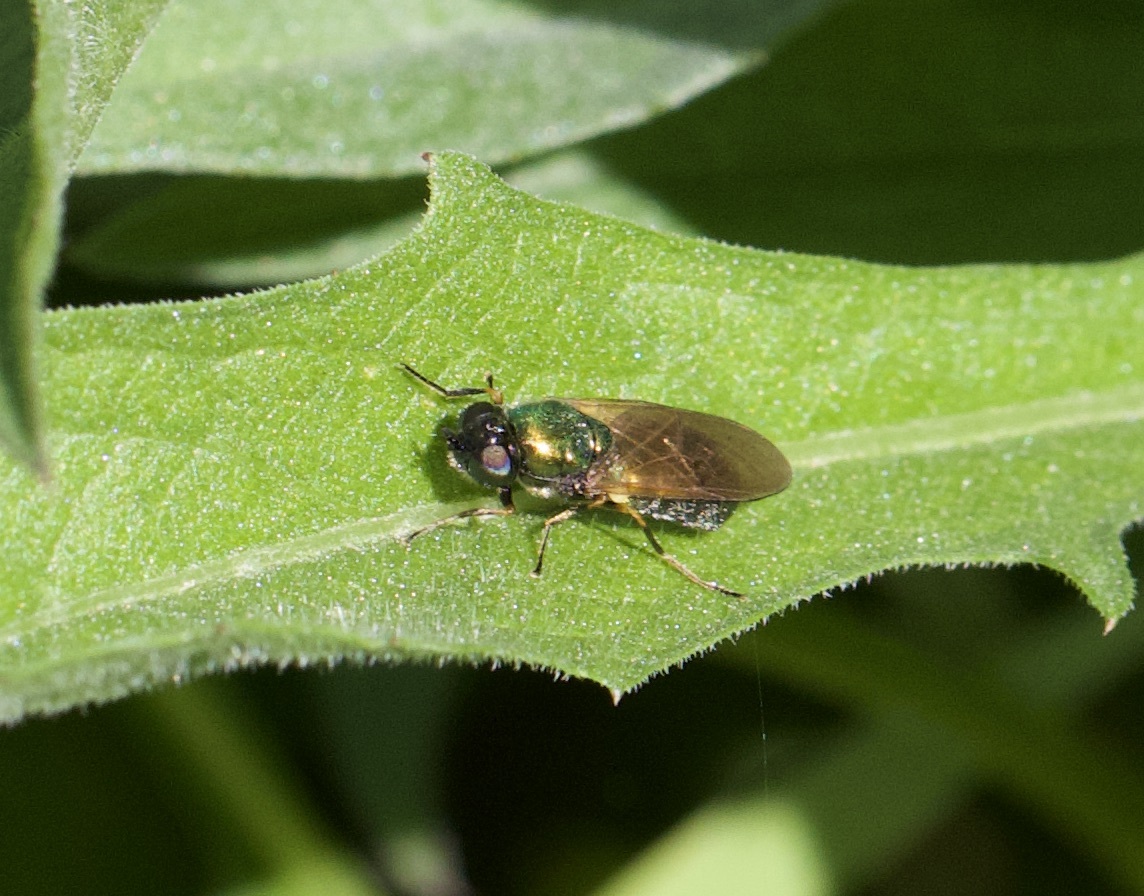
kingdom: Animalia
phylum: Arthropoda
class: Insecta
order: Diptera
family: Stratiomyidae
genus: Chloromyia
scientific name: Chloromyia formosa
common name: Soldier fly
